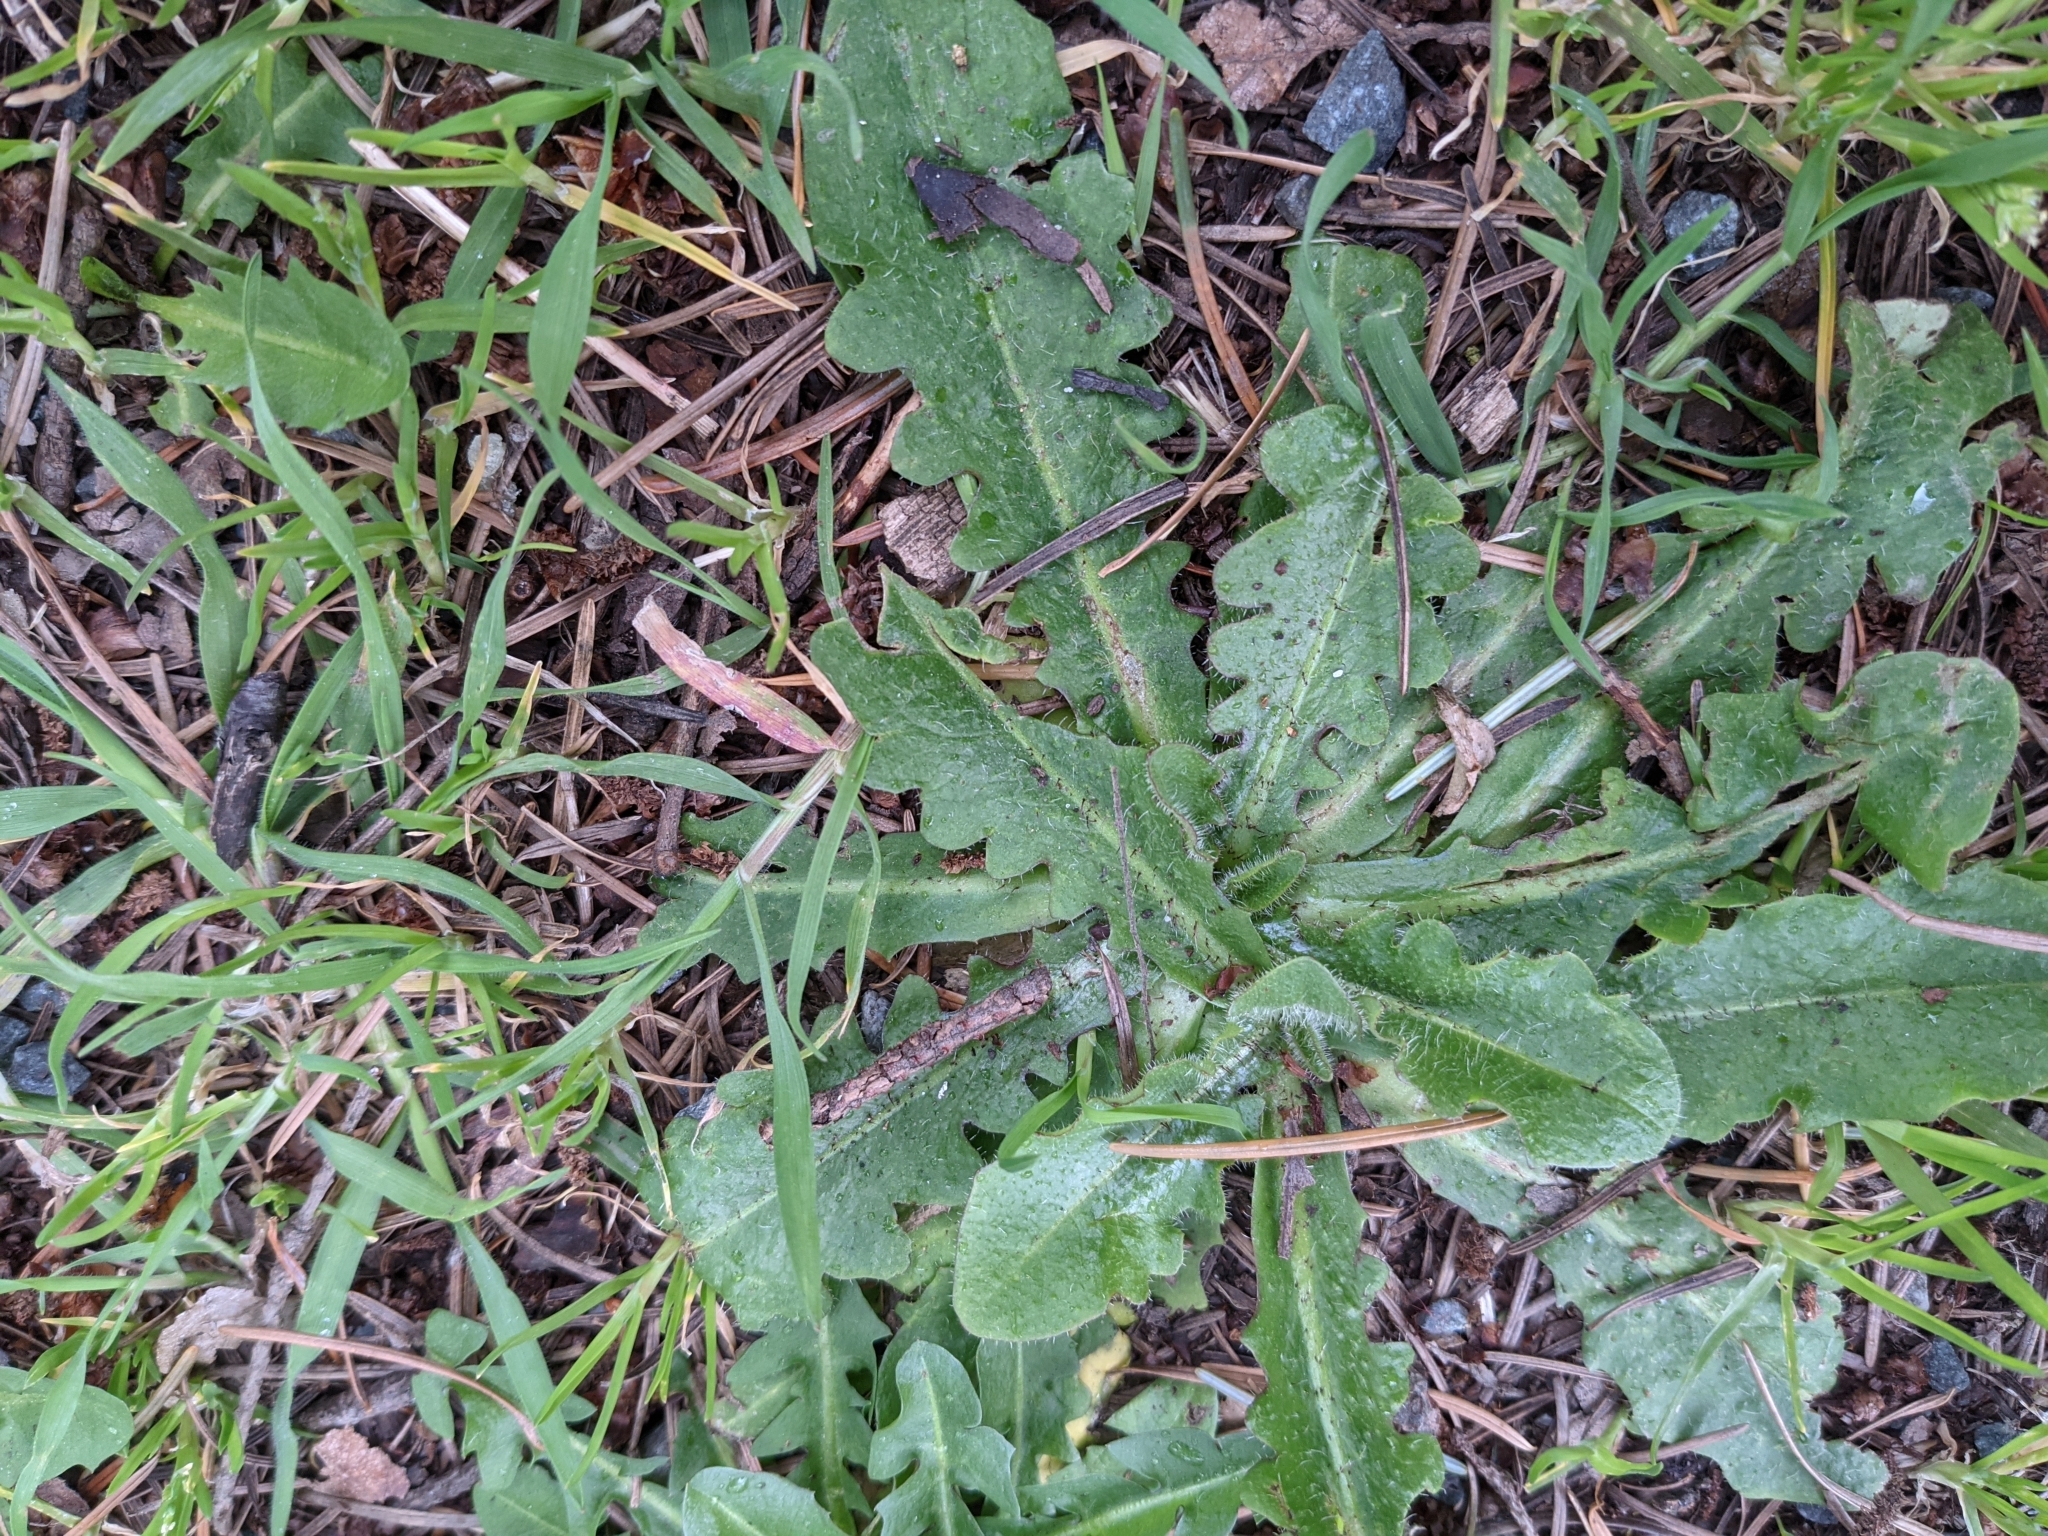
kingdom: Plantae
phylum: Tracheophyta
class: Magnoliopsida
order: Asterales
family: Asteraceae
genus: Hypochaeris
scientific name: Hypochaeris radicata
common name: Flatweed
